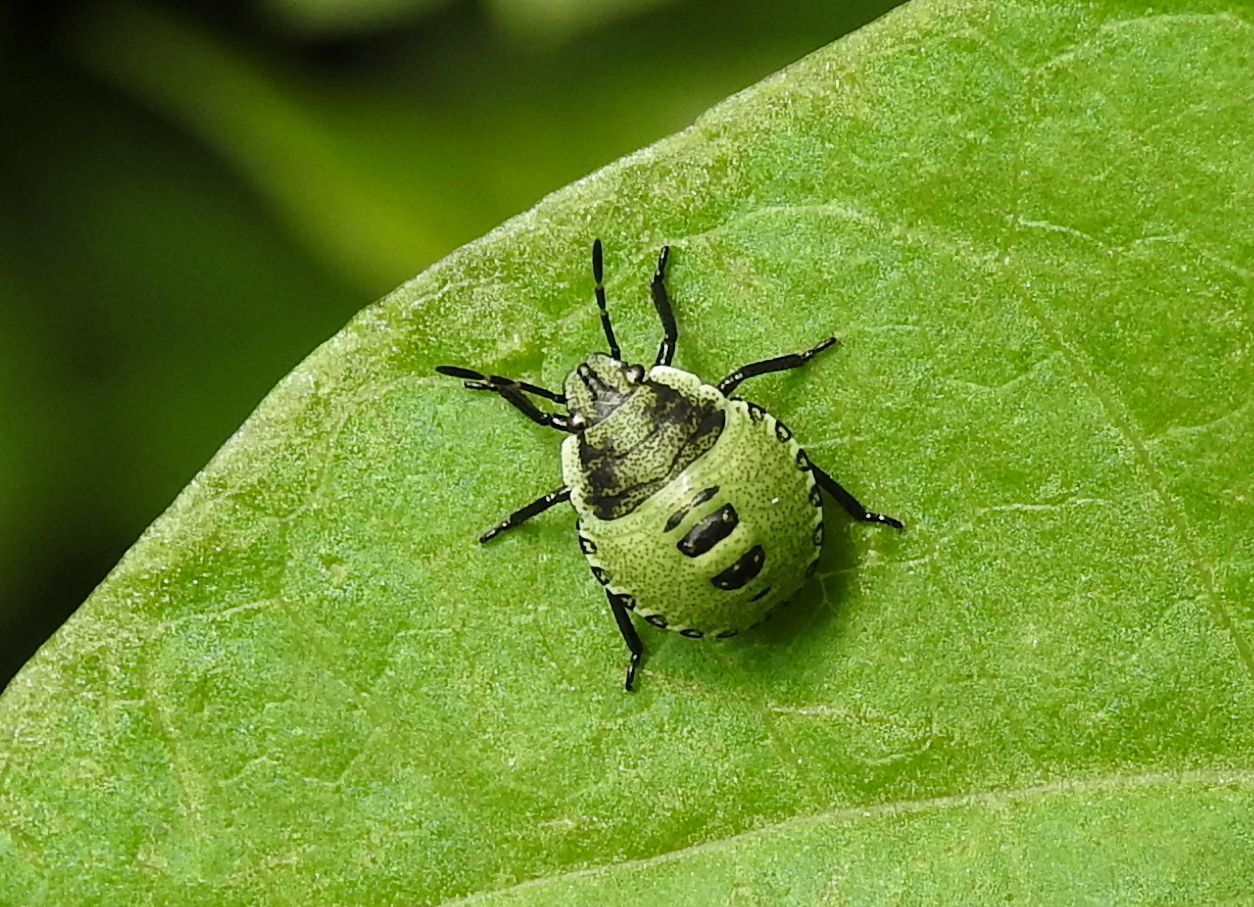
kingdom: Animalia
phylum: Arthropoda
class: Insecta
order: Hemiptera
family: Pentatomidae
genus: Palomena
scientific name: Palomena prasina
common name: Green shieldbug
